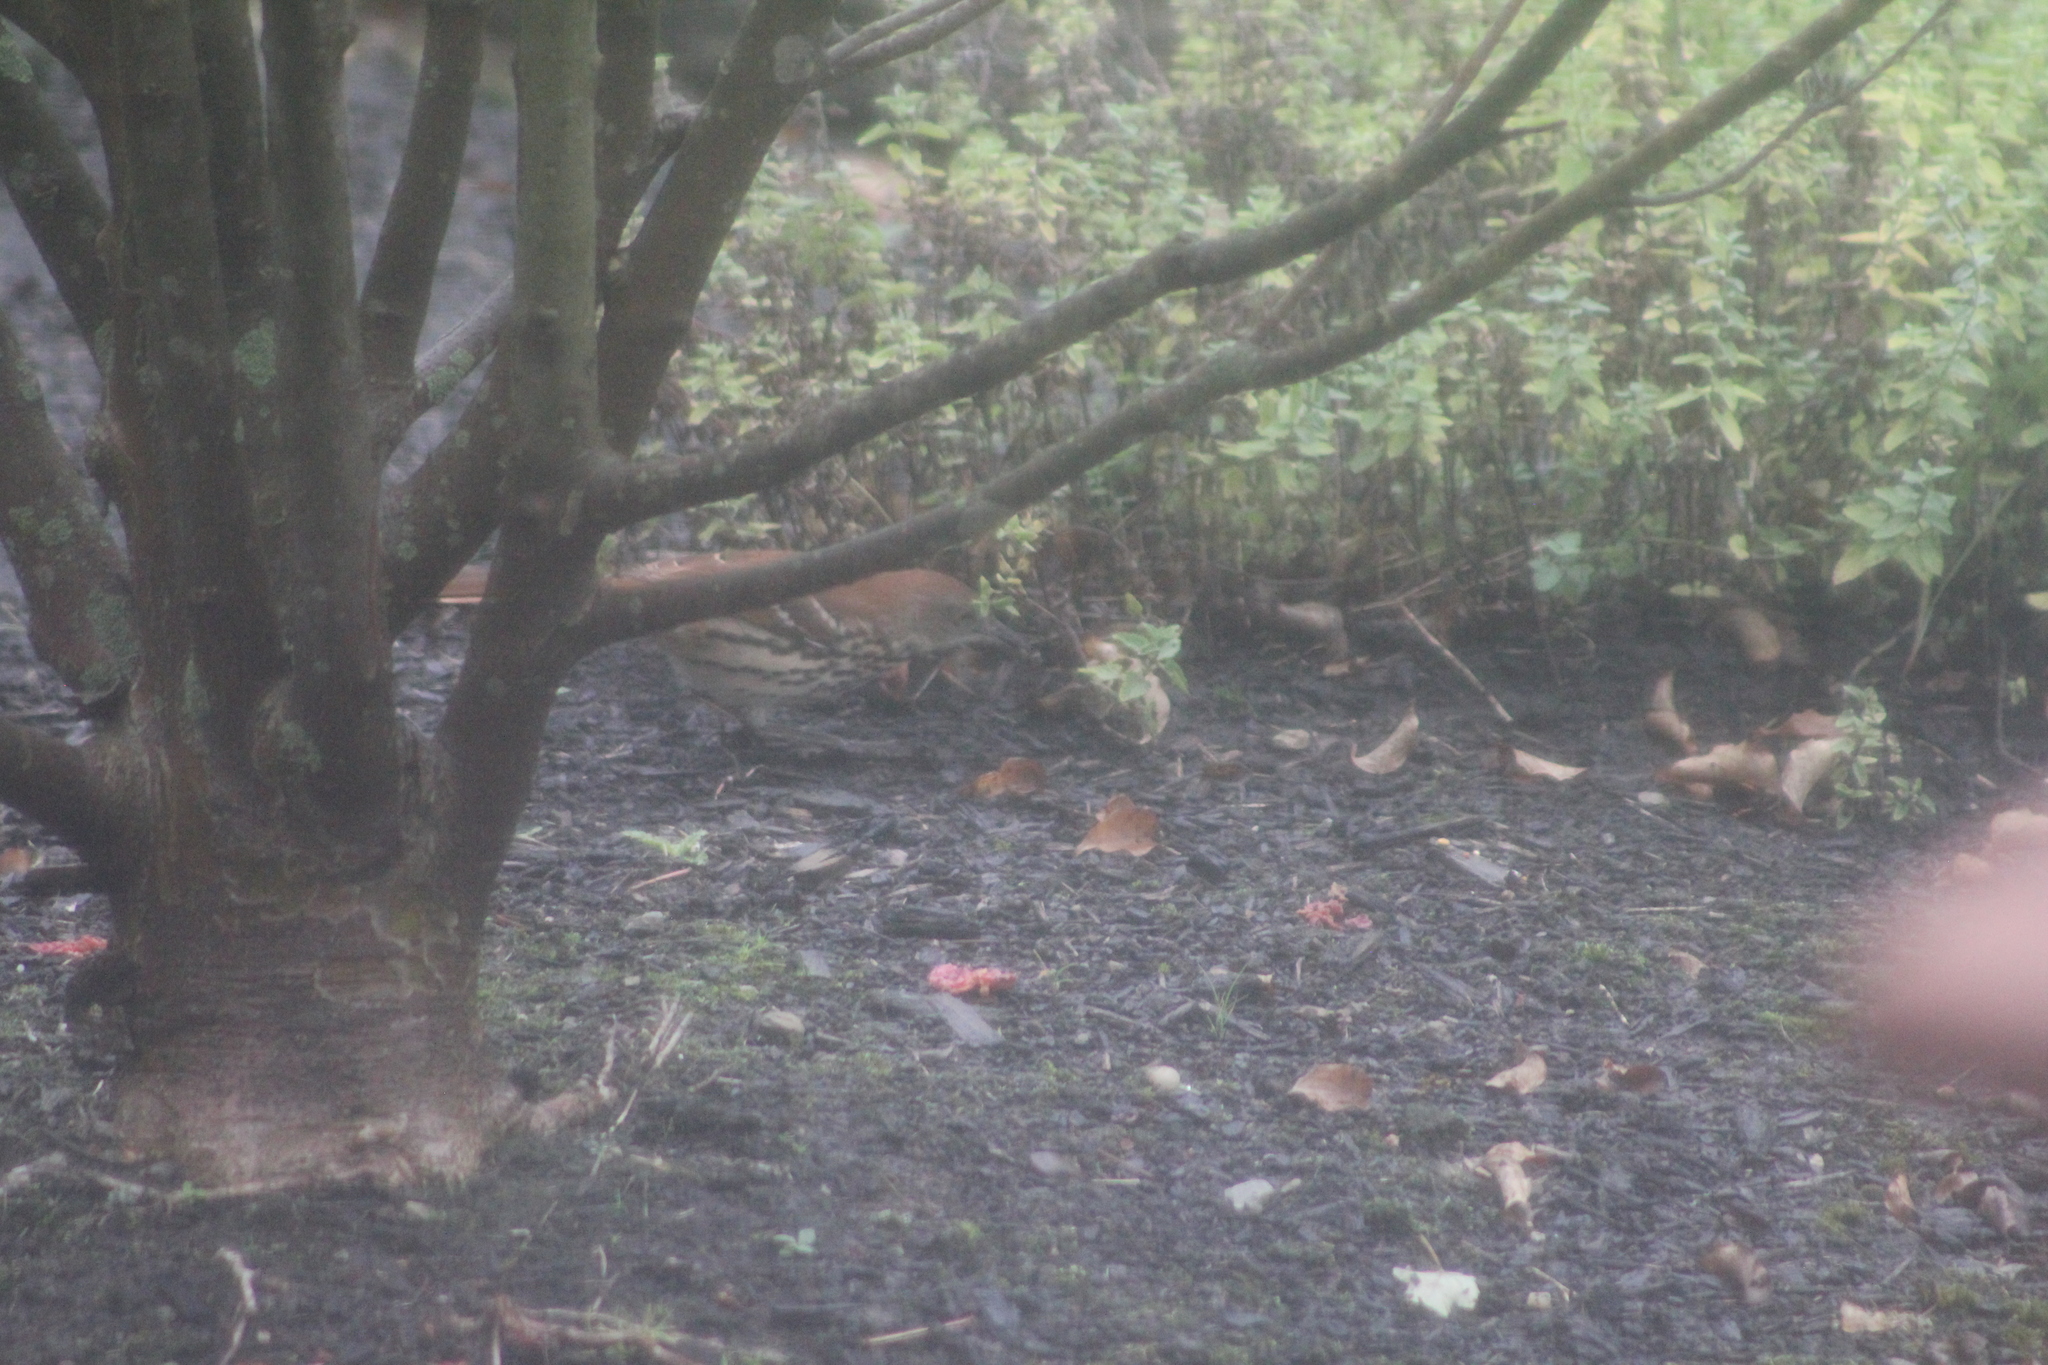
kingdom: Animalia
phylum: Chordata
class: Aves
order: Passeriformes
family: Mimidae
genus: Toxostoma
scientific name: Toxostoma rufum
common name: Brown thrasher
